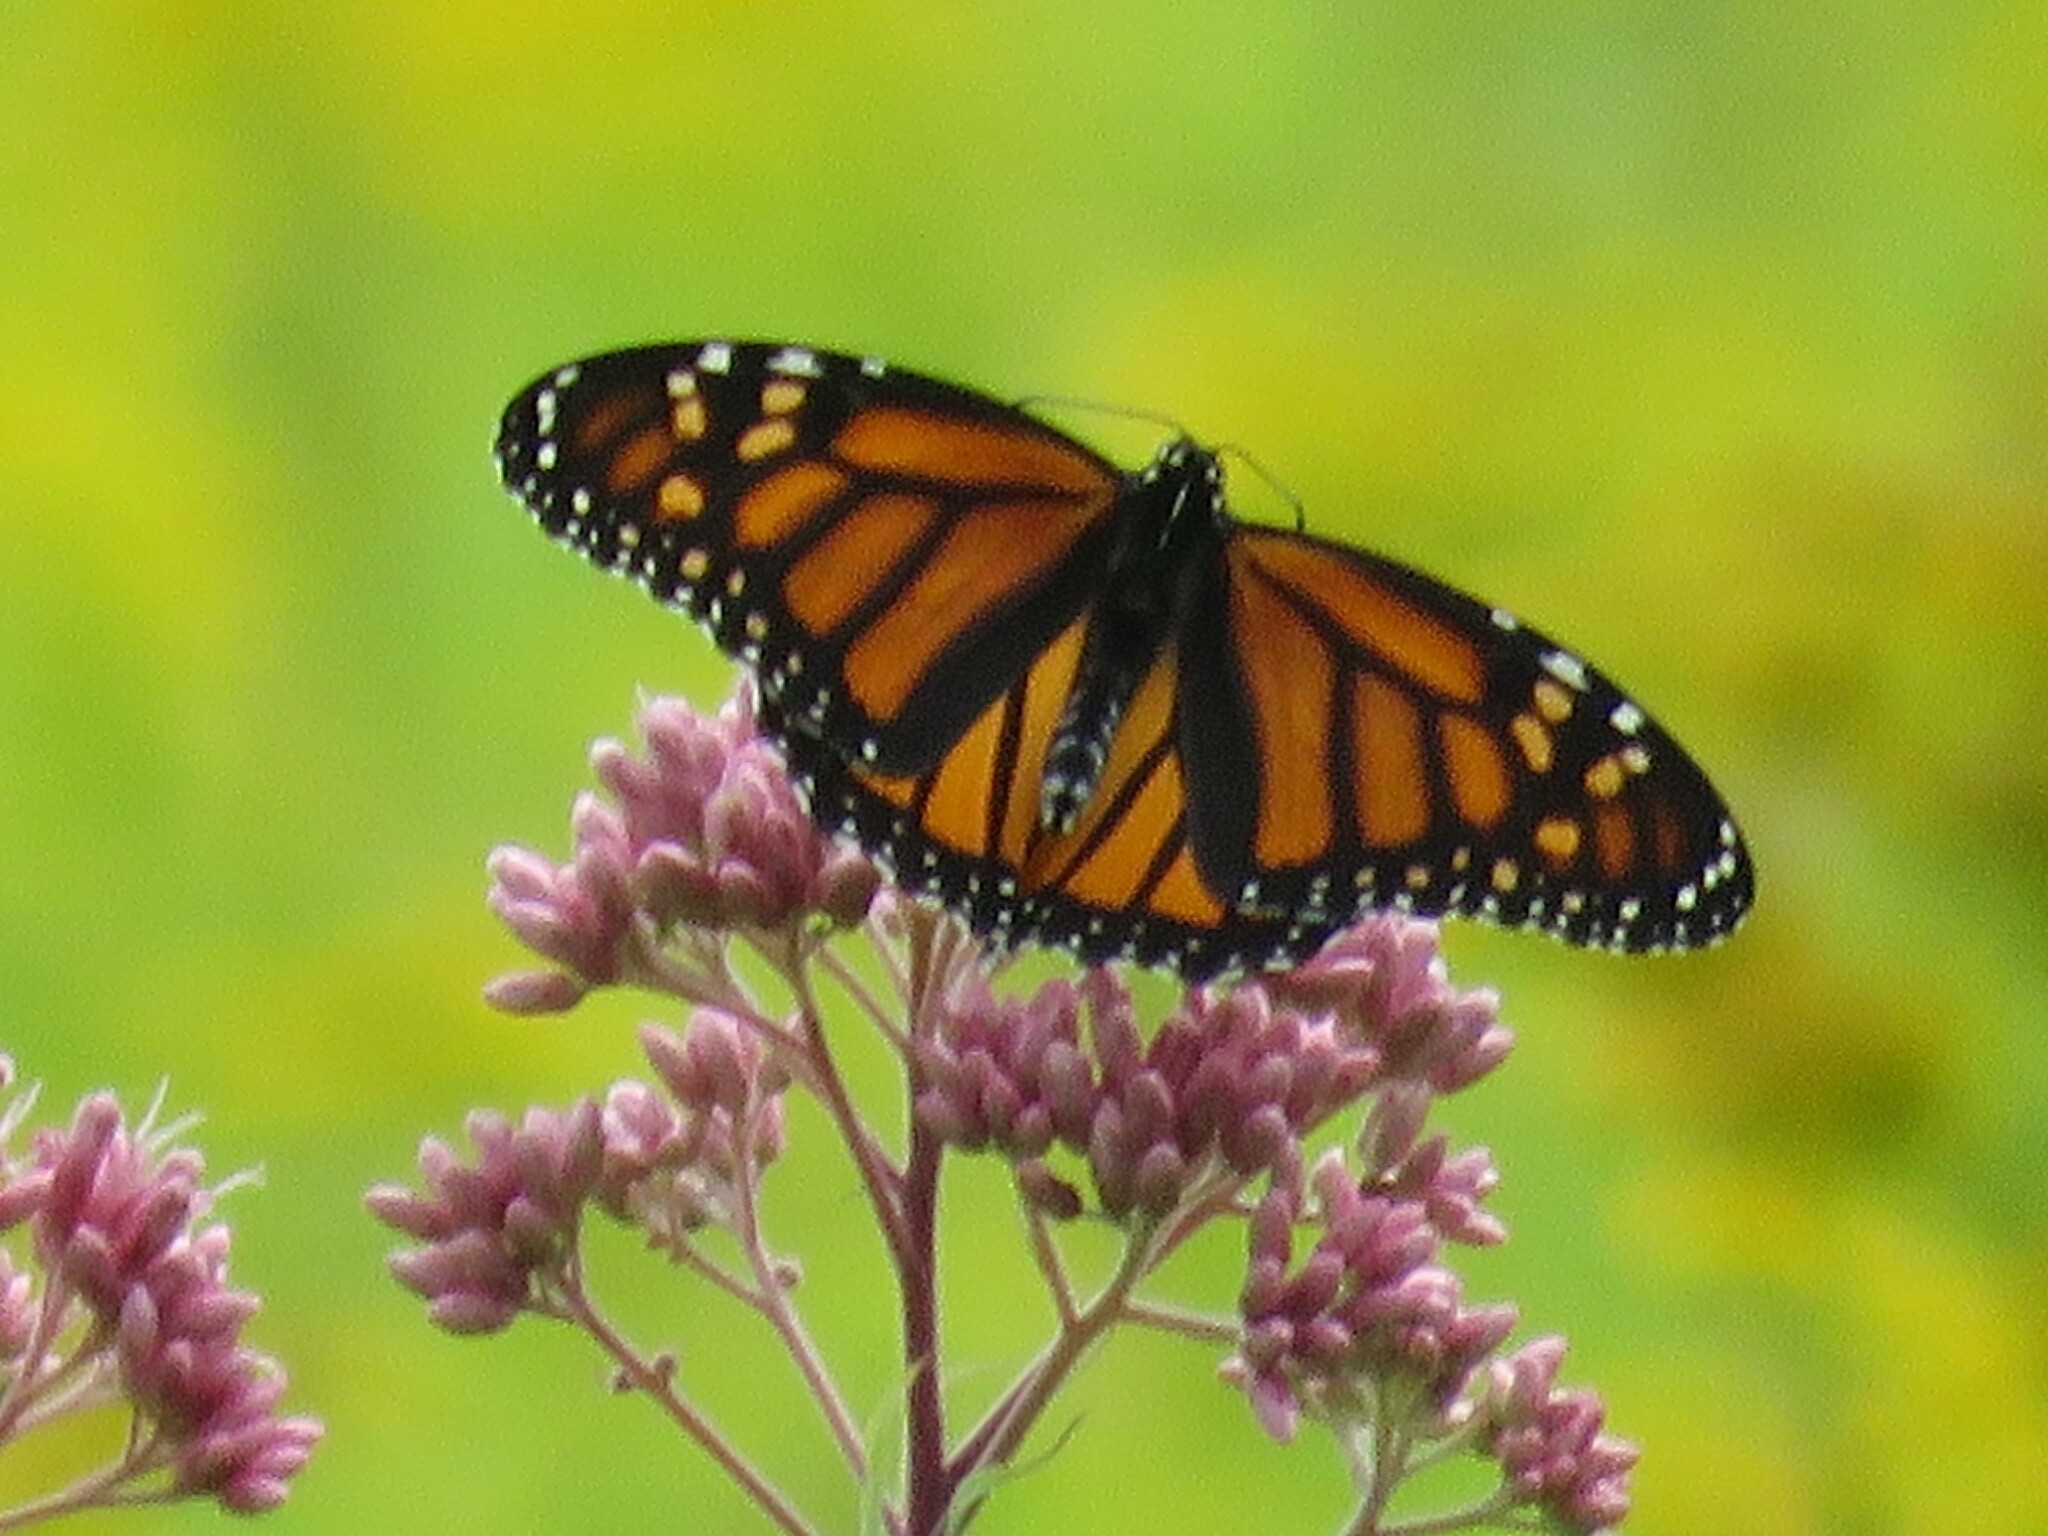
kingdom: Animalia
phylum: Arthropoda
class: Insecta
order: Lepidoptera
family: Nymphalidae
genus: Danaus
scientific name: Danaus plexippus
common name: Monarch
